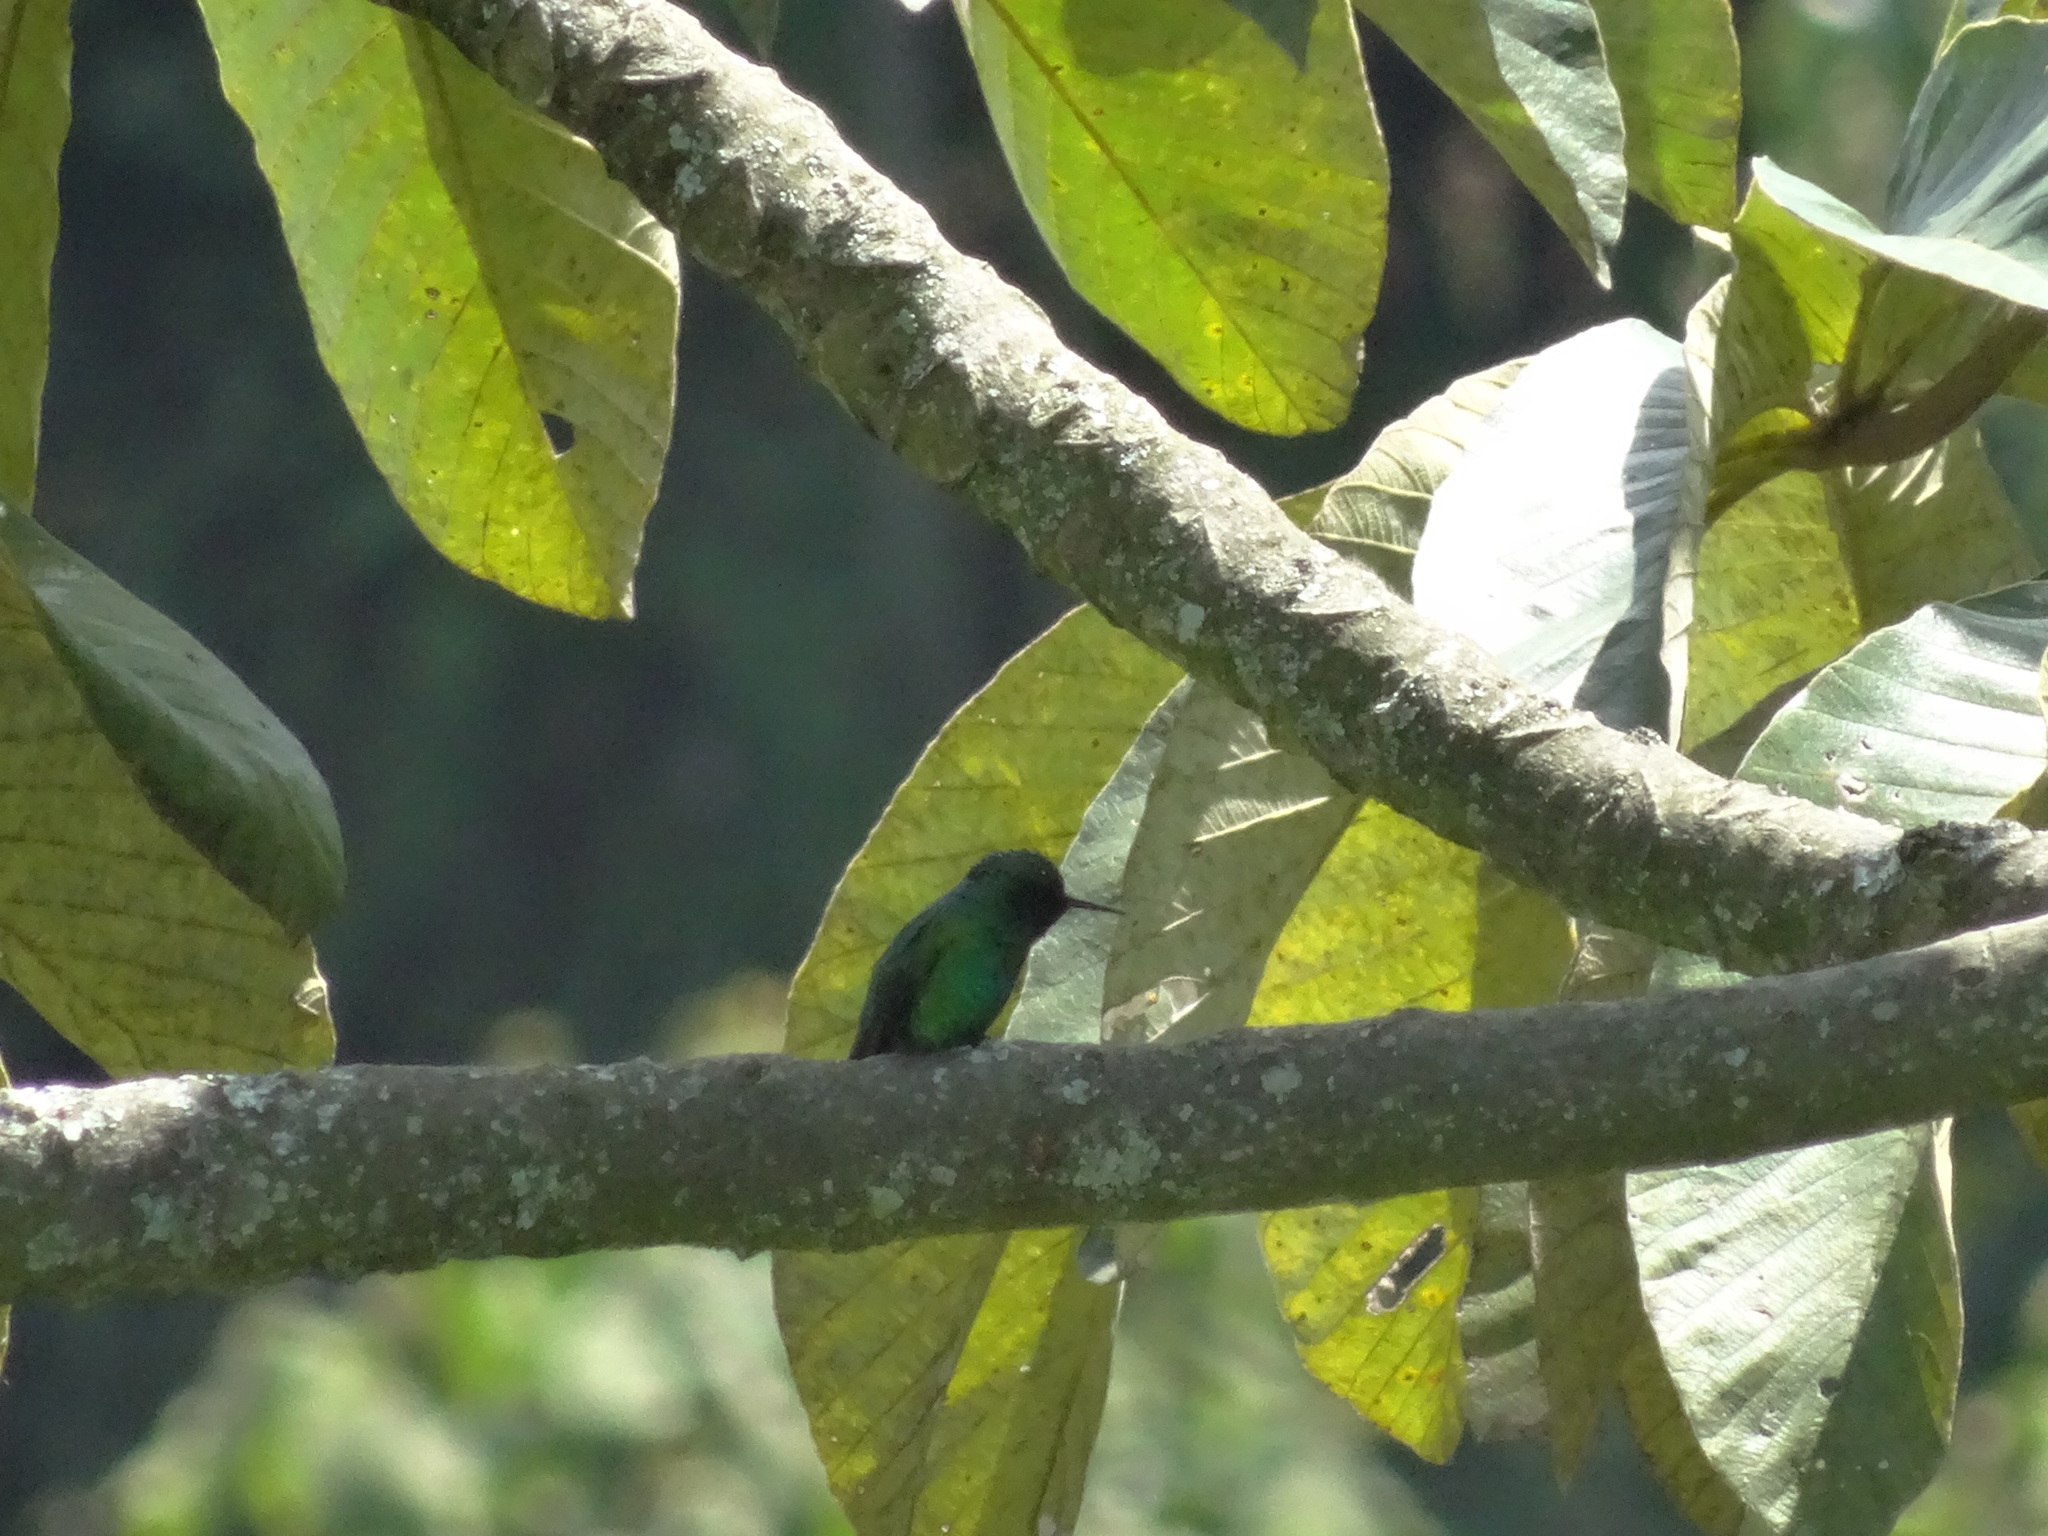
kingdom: Animalia
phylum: Chordata
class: Aves
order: Apodiformes
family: Trochilidae
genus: Chlorostilbon
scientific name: Chlorostilbon melanorhynchus
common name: Western emerald
